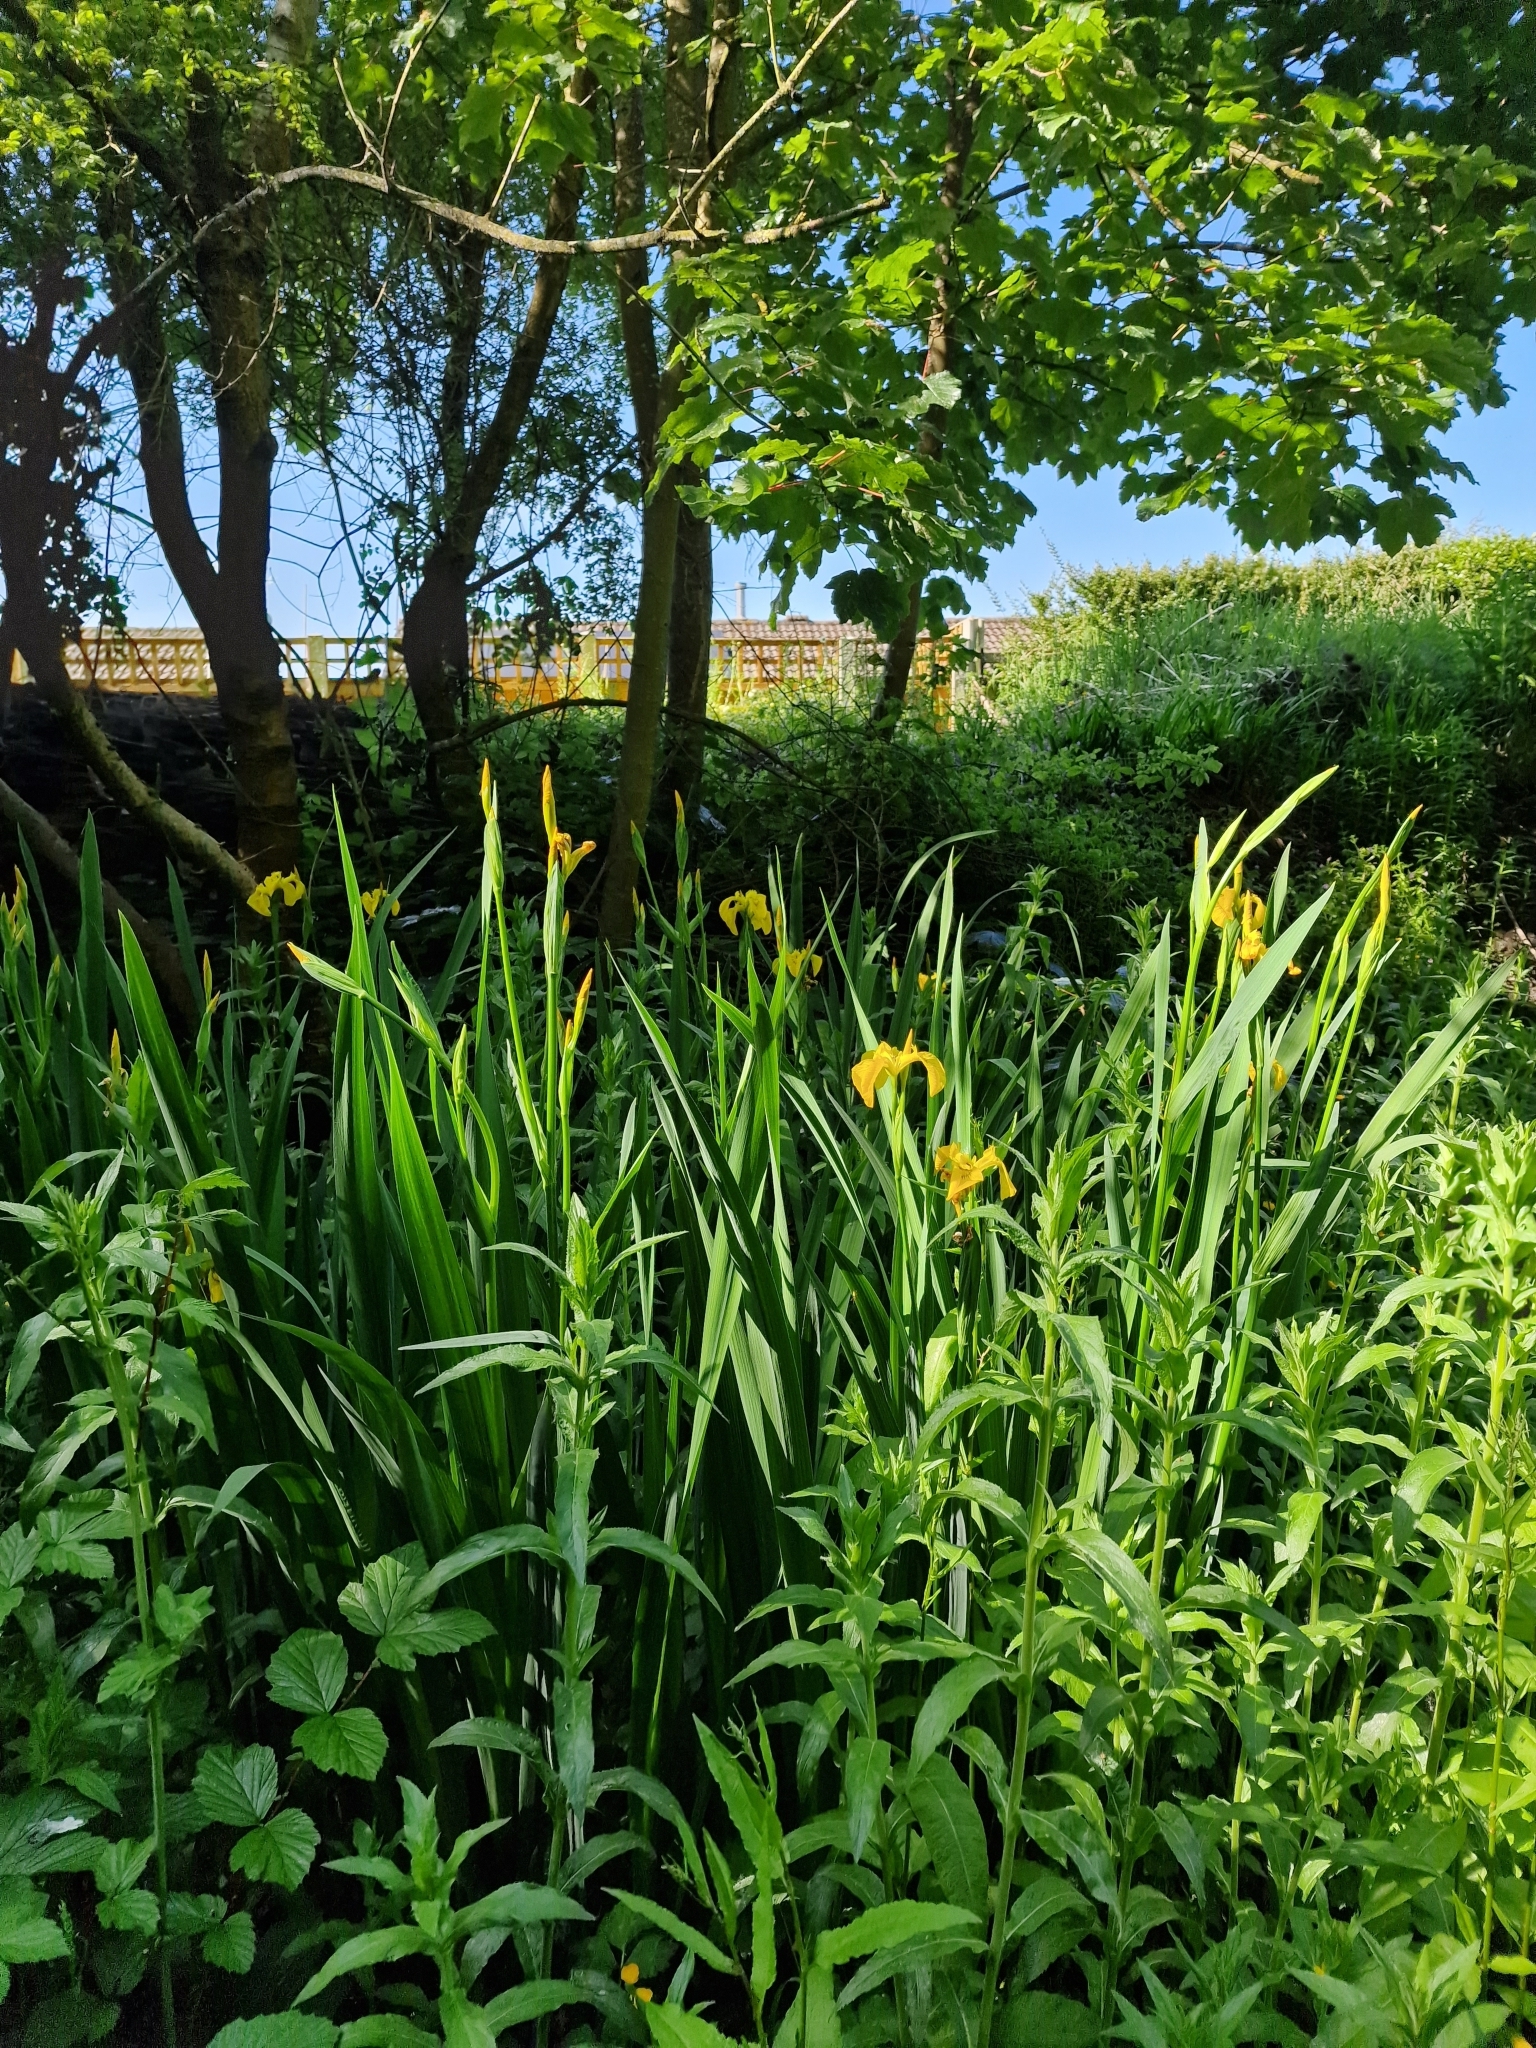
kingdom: Plantae
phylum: Tracheophyta
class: Liliopsida
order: Asparagales
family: Iridaceae
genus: Iris
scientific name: Iris pseudacorus
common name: Yellow flag
